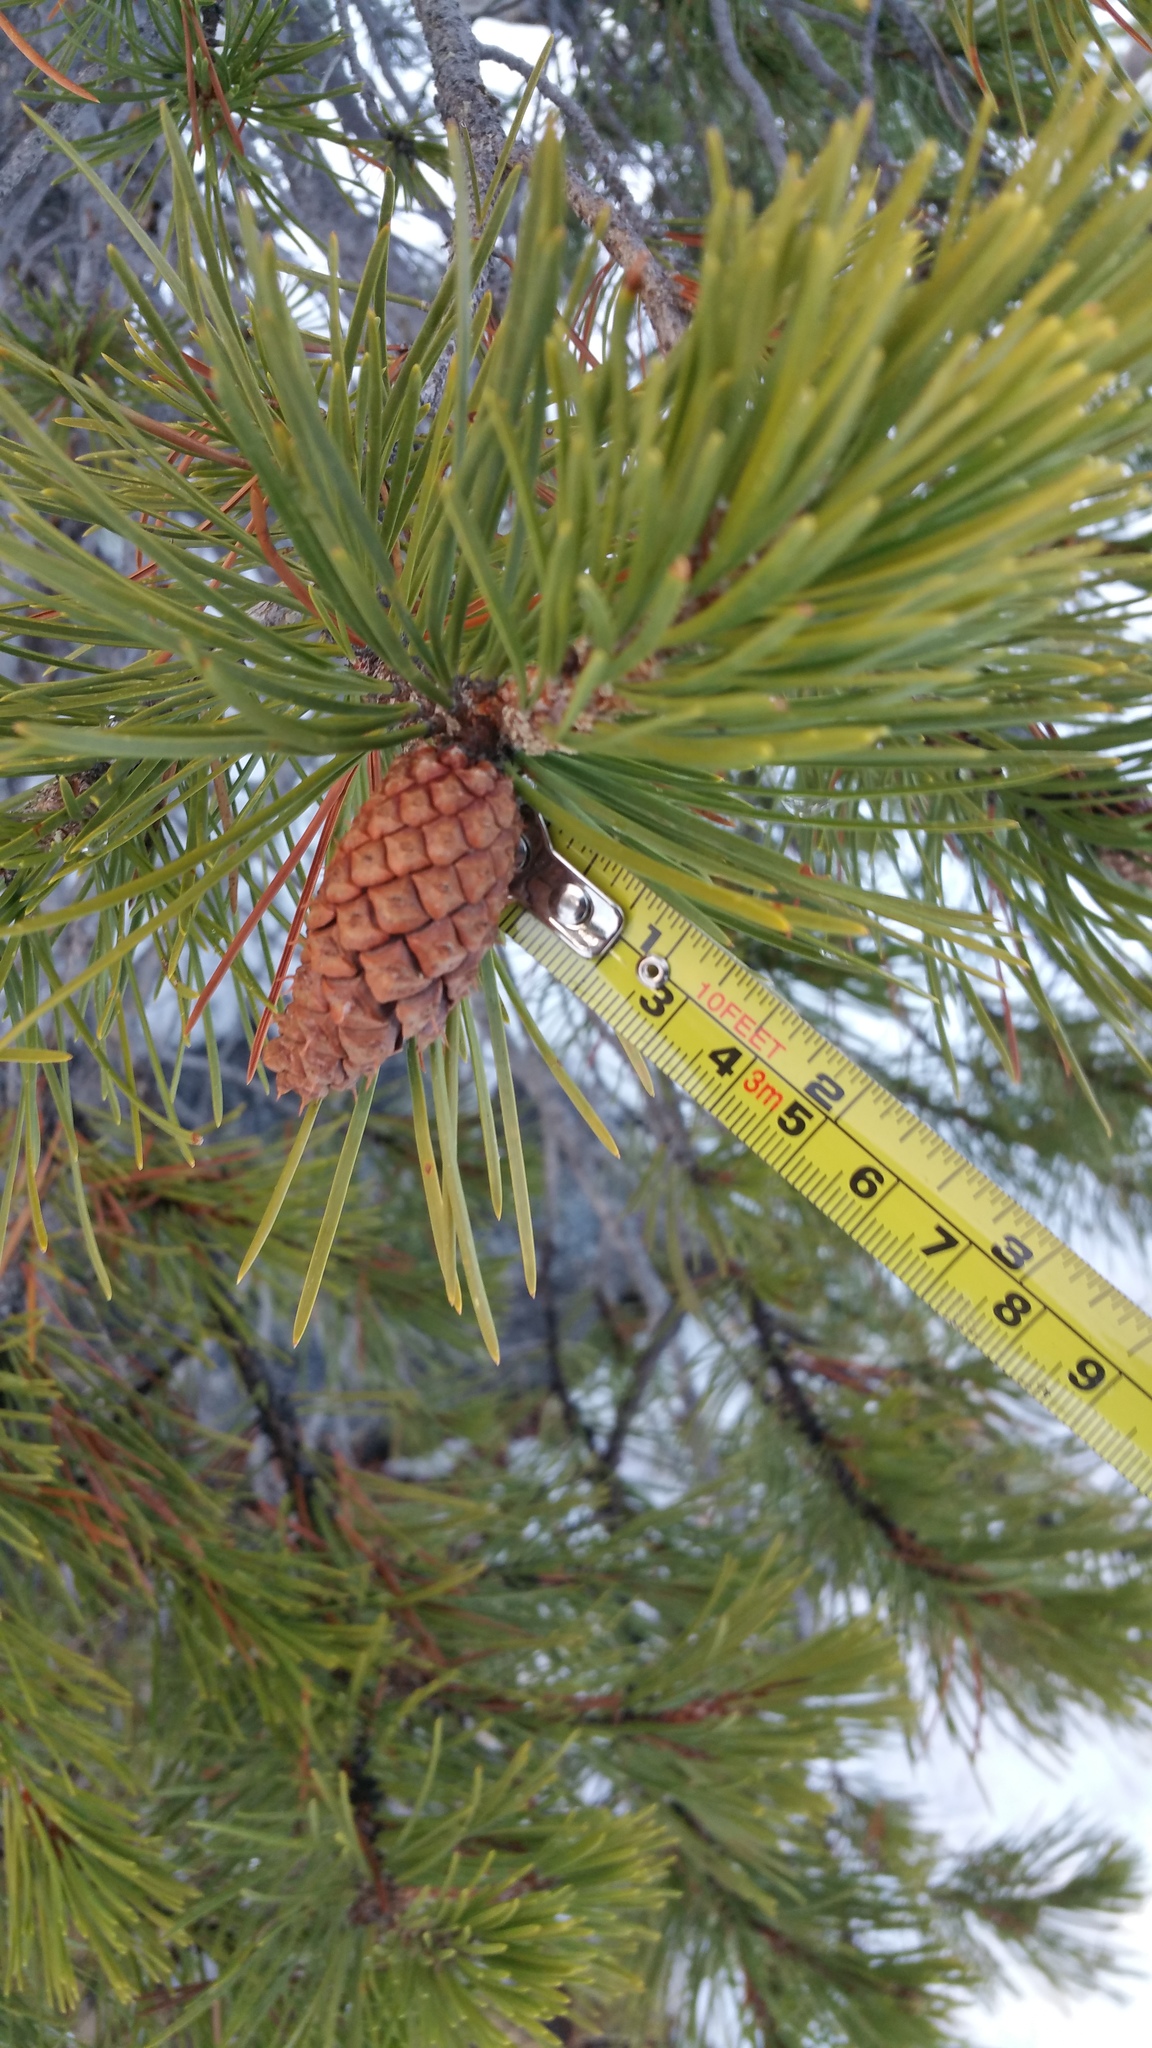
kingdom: Plantae
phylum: Tracheophyta
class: Pinopsida
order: Pinales
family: Pinaceae
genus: Pinus
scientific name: Pinus contorta
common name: Lodgepole pine
